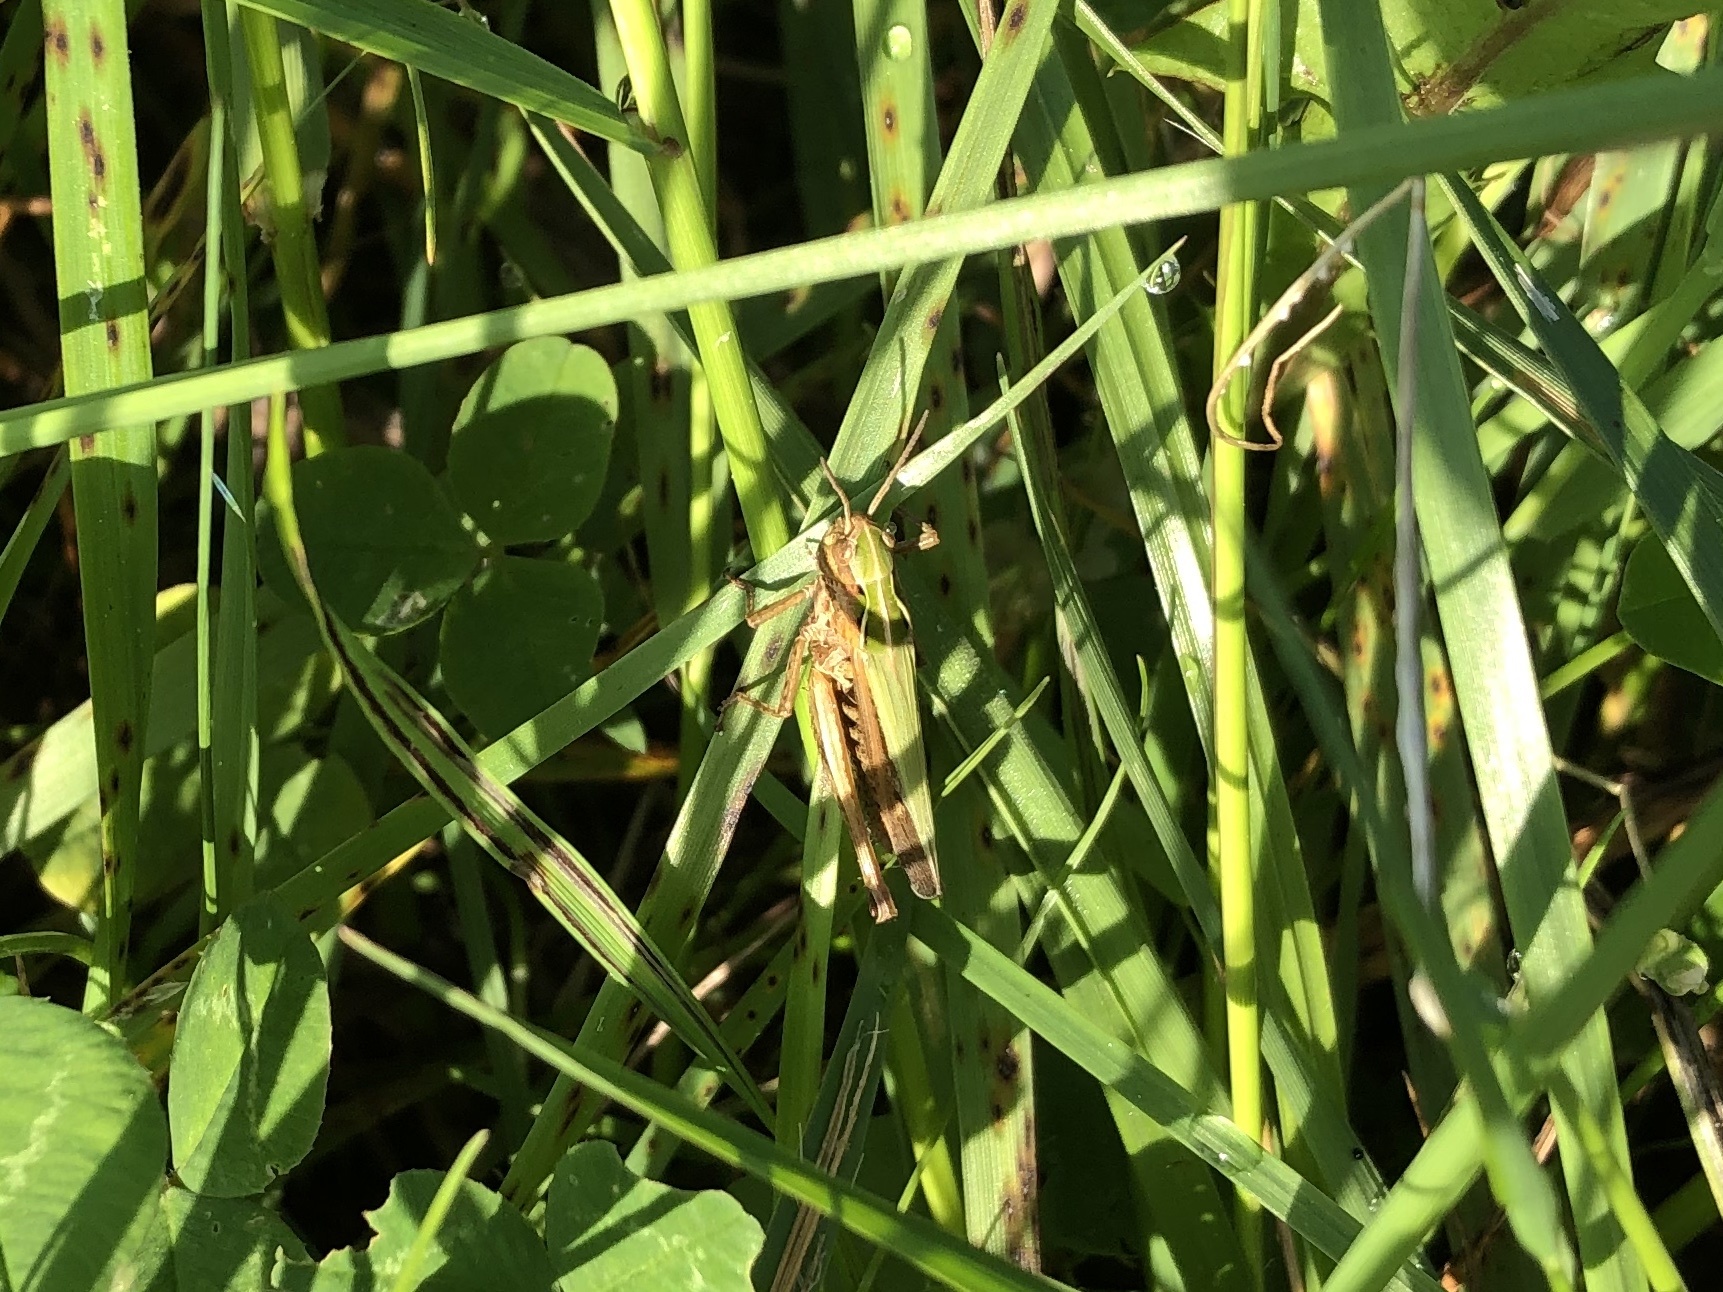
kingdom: Animalia
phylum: Arthropoda
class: Insecta
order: Orthoptera
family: Acrididae
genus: Omocestus
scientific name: Omocestus viridulus
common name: Common green grasshopper
